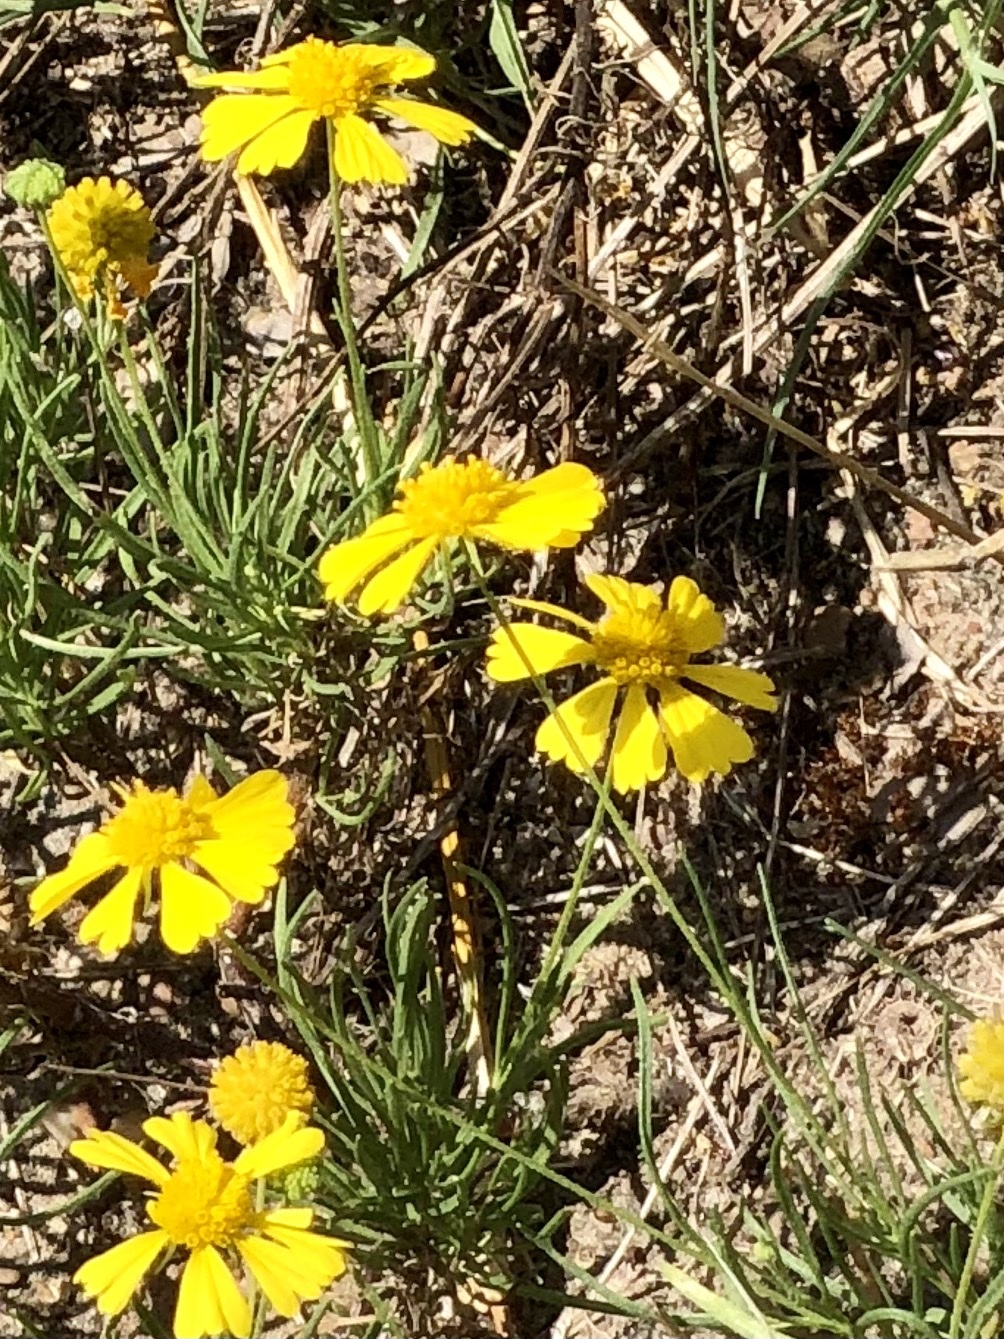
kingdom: Plantae
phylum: Tracheophyta
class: Magnoliopsida
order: Asterales
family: Asteraceae
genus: Helenium
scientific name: Helenium amarum
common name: Bitter sneezeweed
